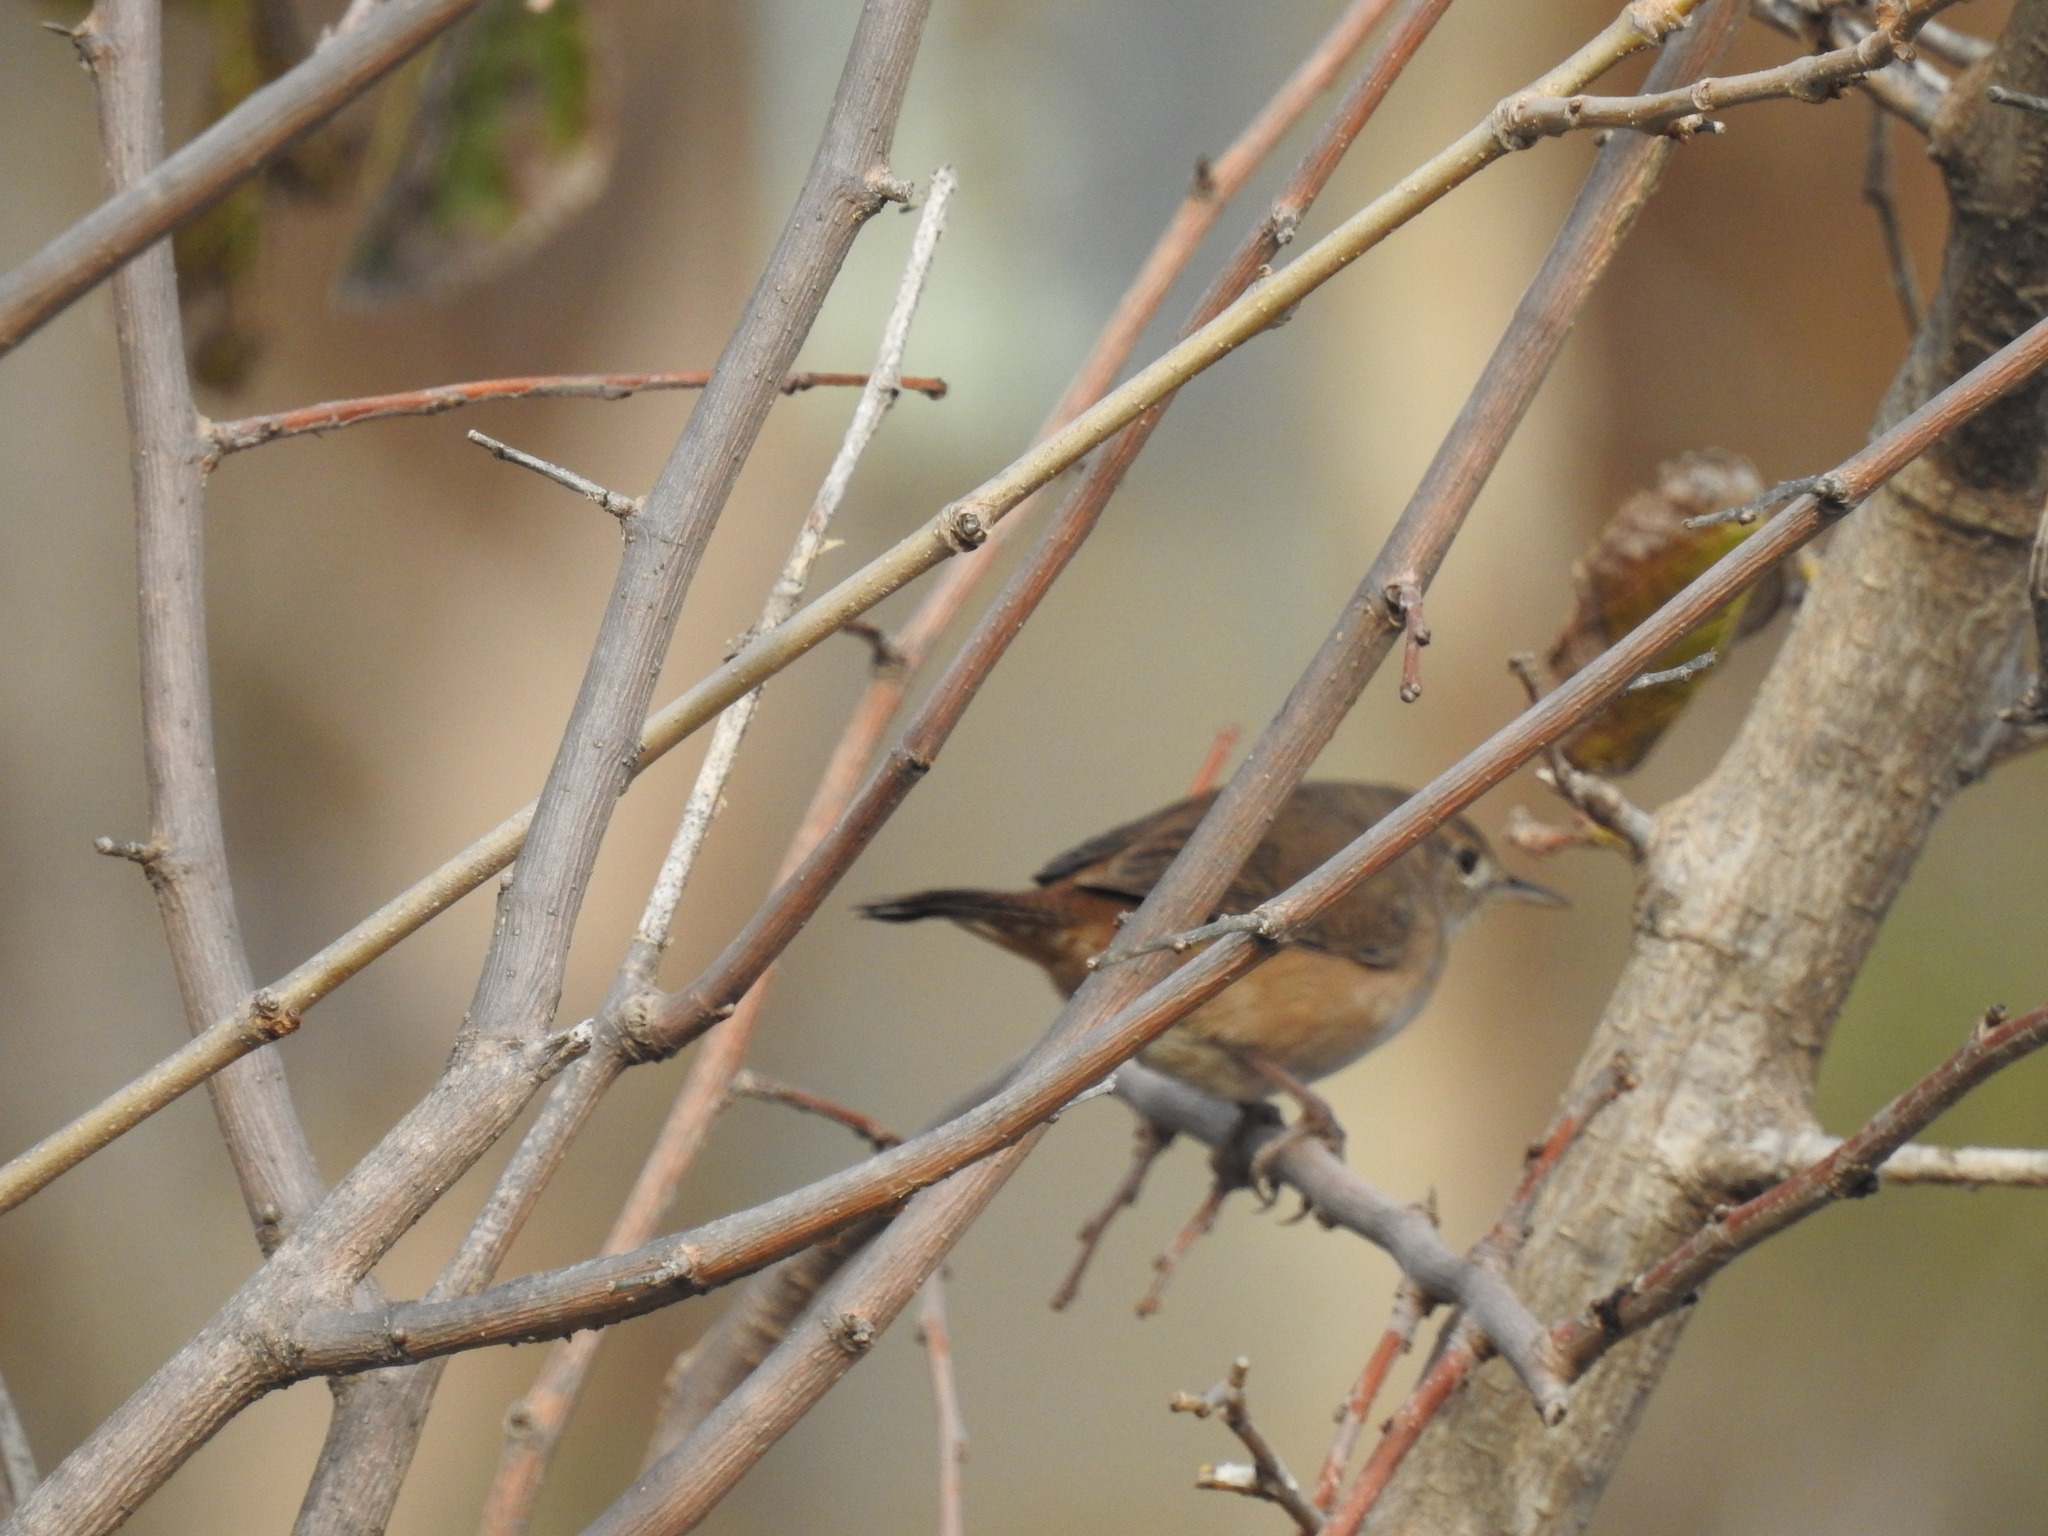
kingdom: Animalia
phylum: Chordata
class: Aves
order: Passeriformes
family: Troglodytidae
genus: Troglodytes
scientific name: Troglodytes aedon
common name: House wren
